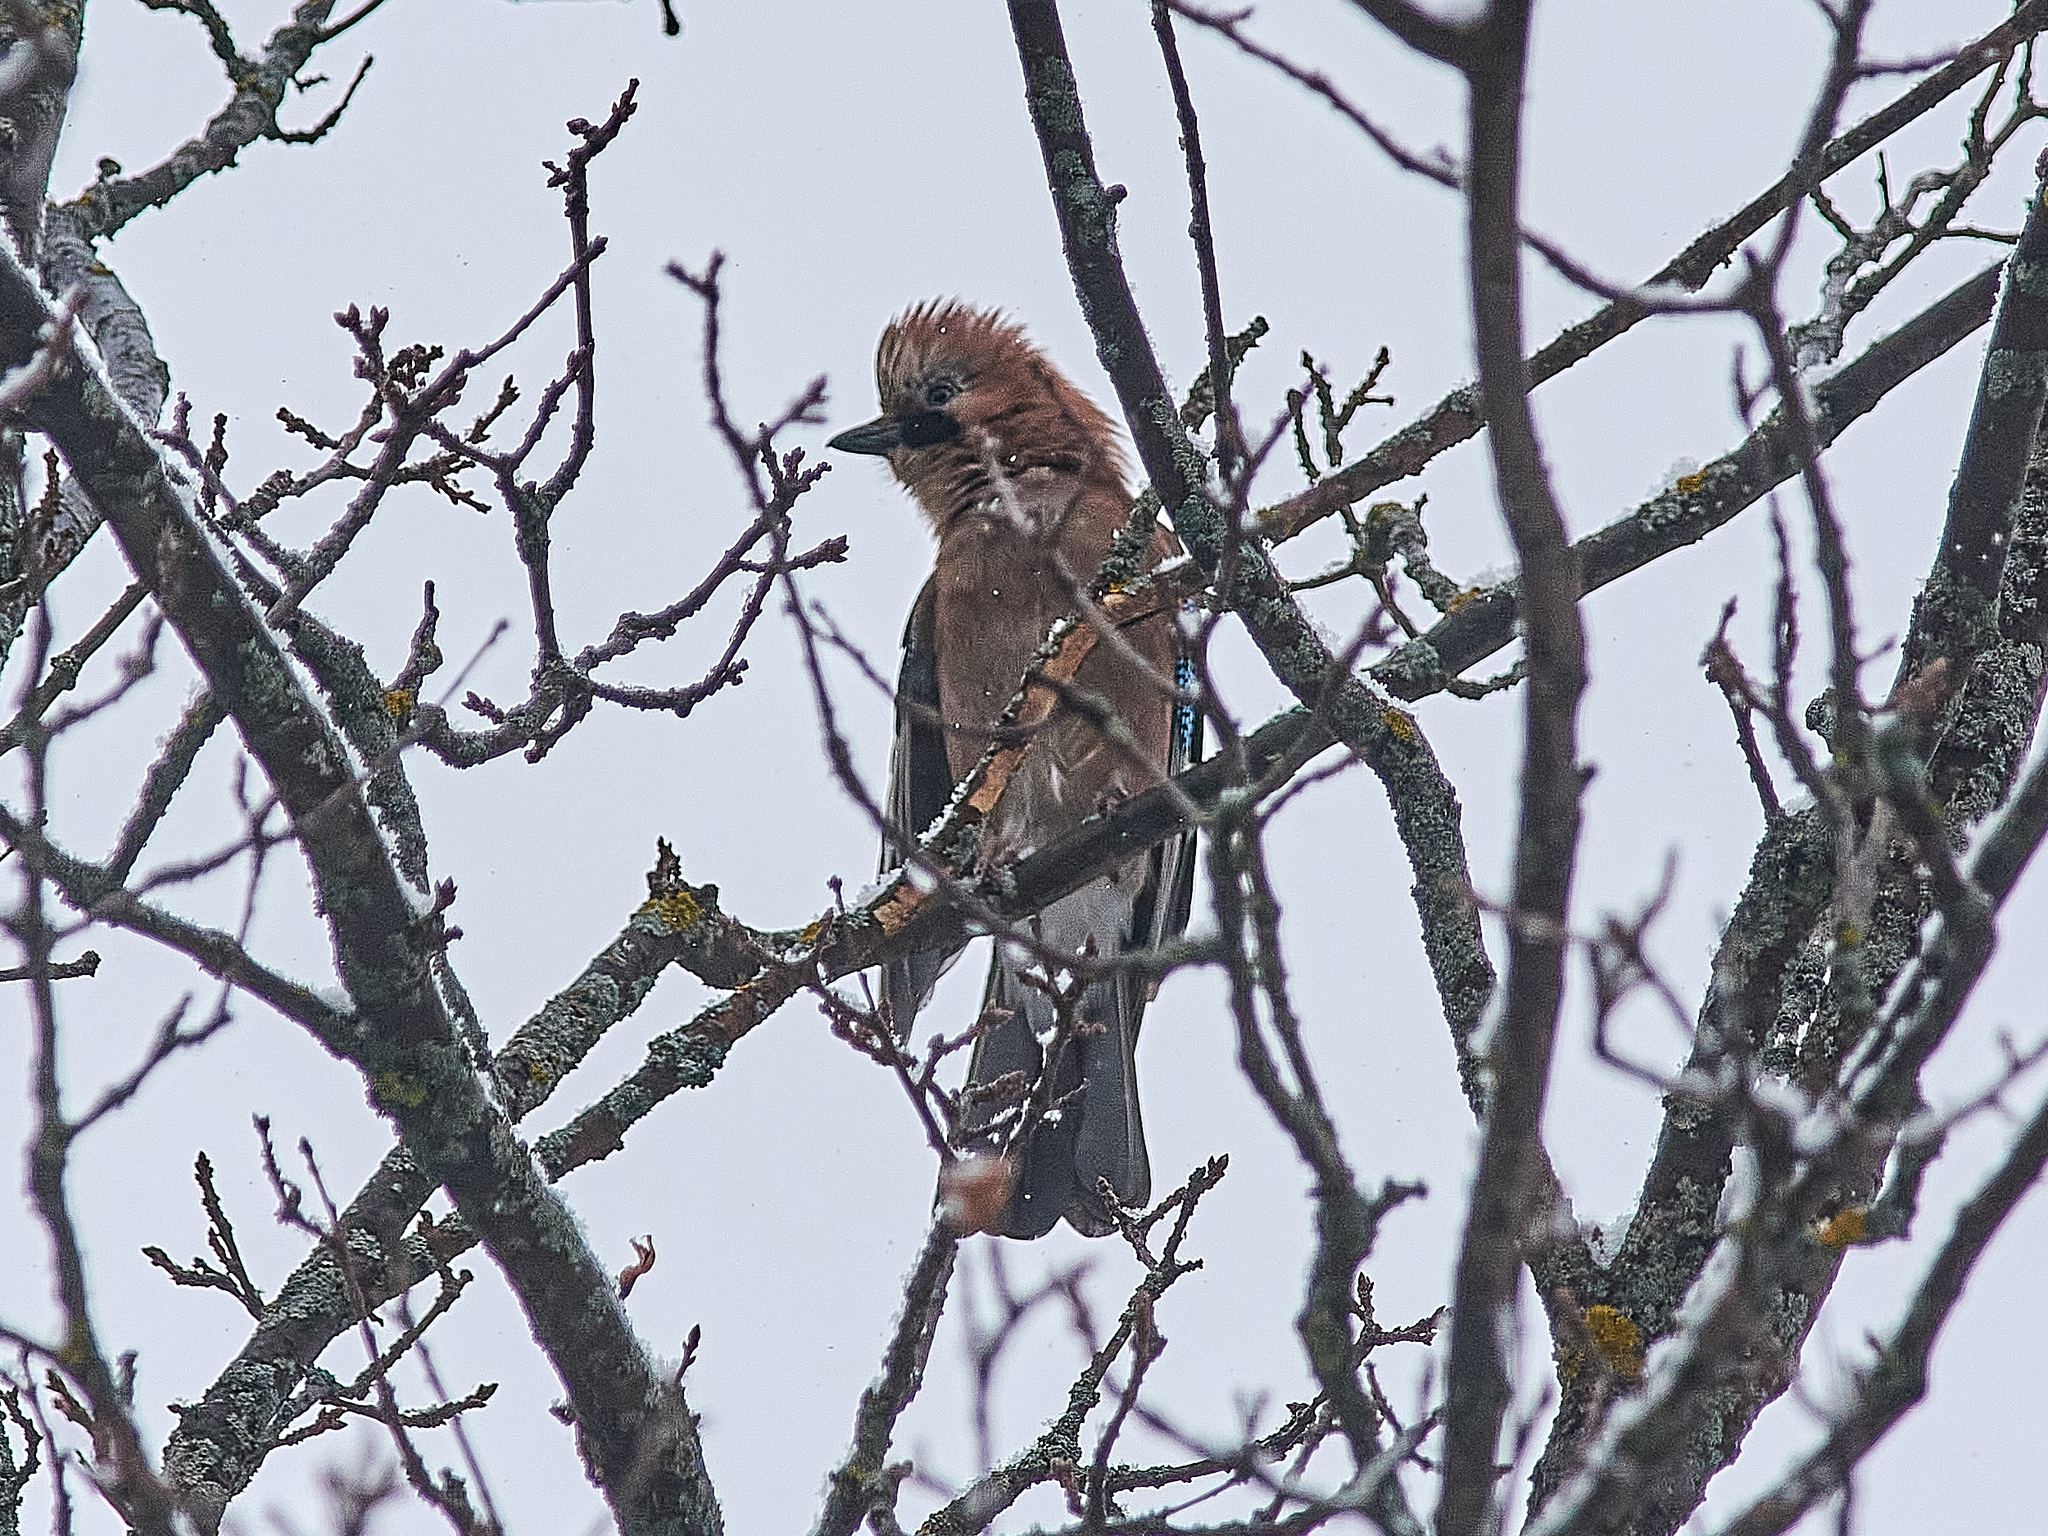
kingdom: Animalia
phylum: Chordata
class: Aves
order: Passeriformes
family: Corvidae
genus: Garrulus
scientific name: Garrulus glandarius
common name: Eurasian jay
